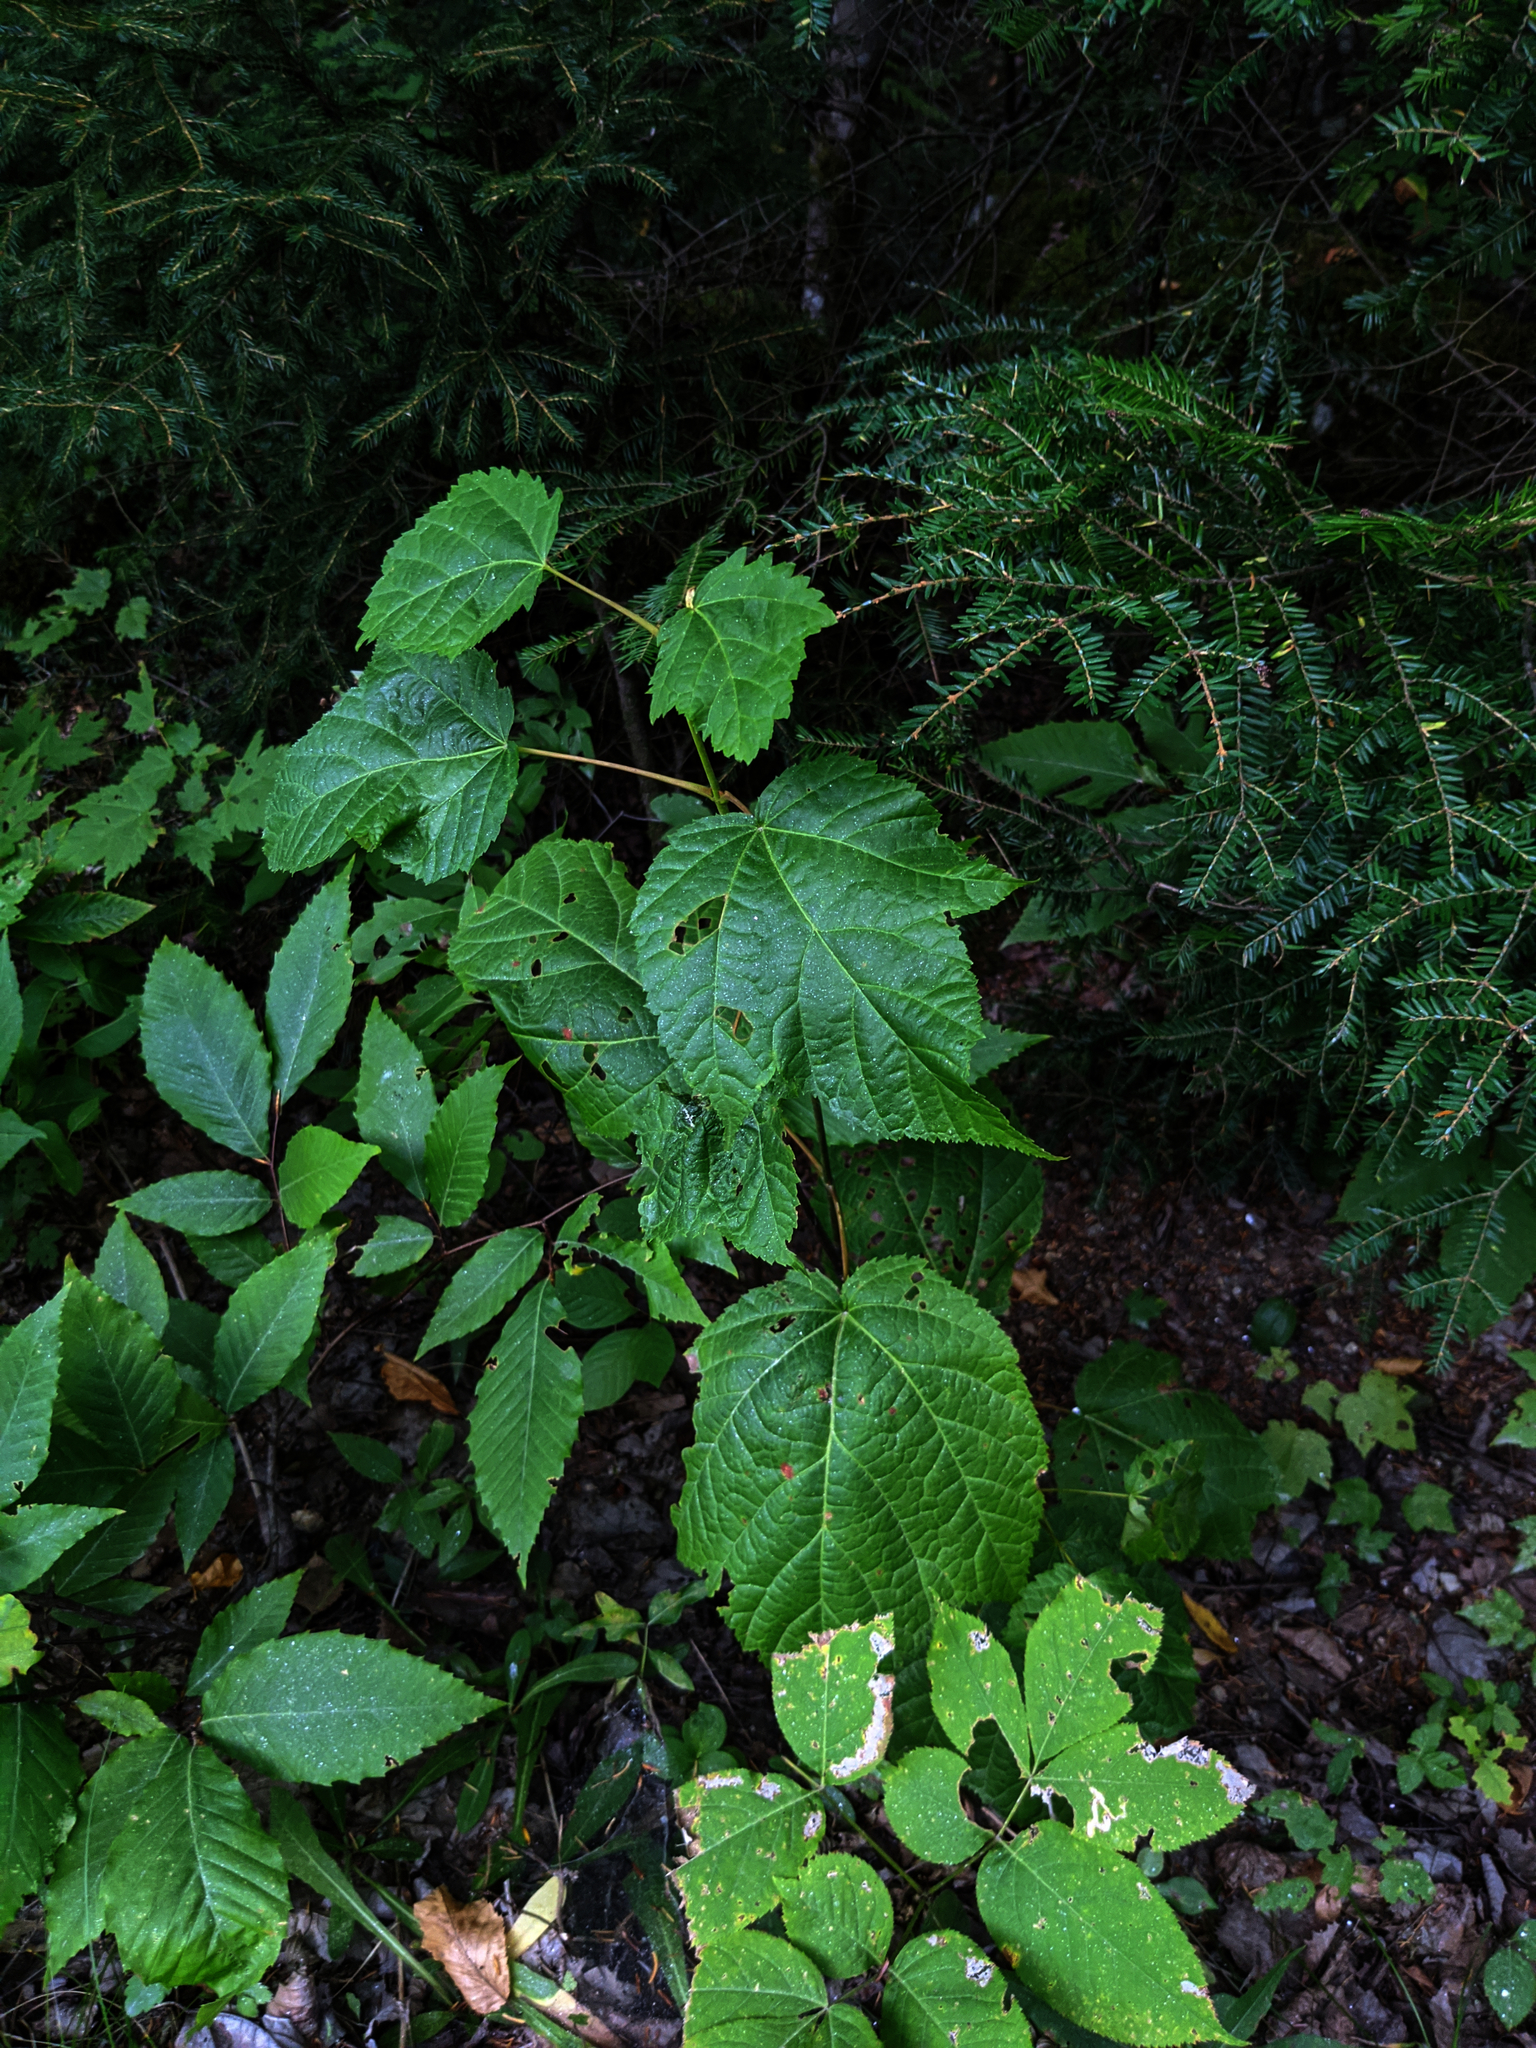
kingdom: Plantae
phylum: Tracheophyta
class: Magnoliopsida
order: Sapindales
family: Sapindaceae
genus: Acer
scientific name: Acer pensylvanicum
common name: Moosewood
